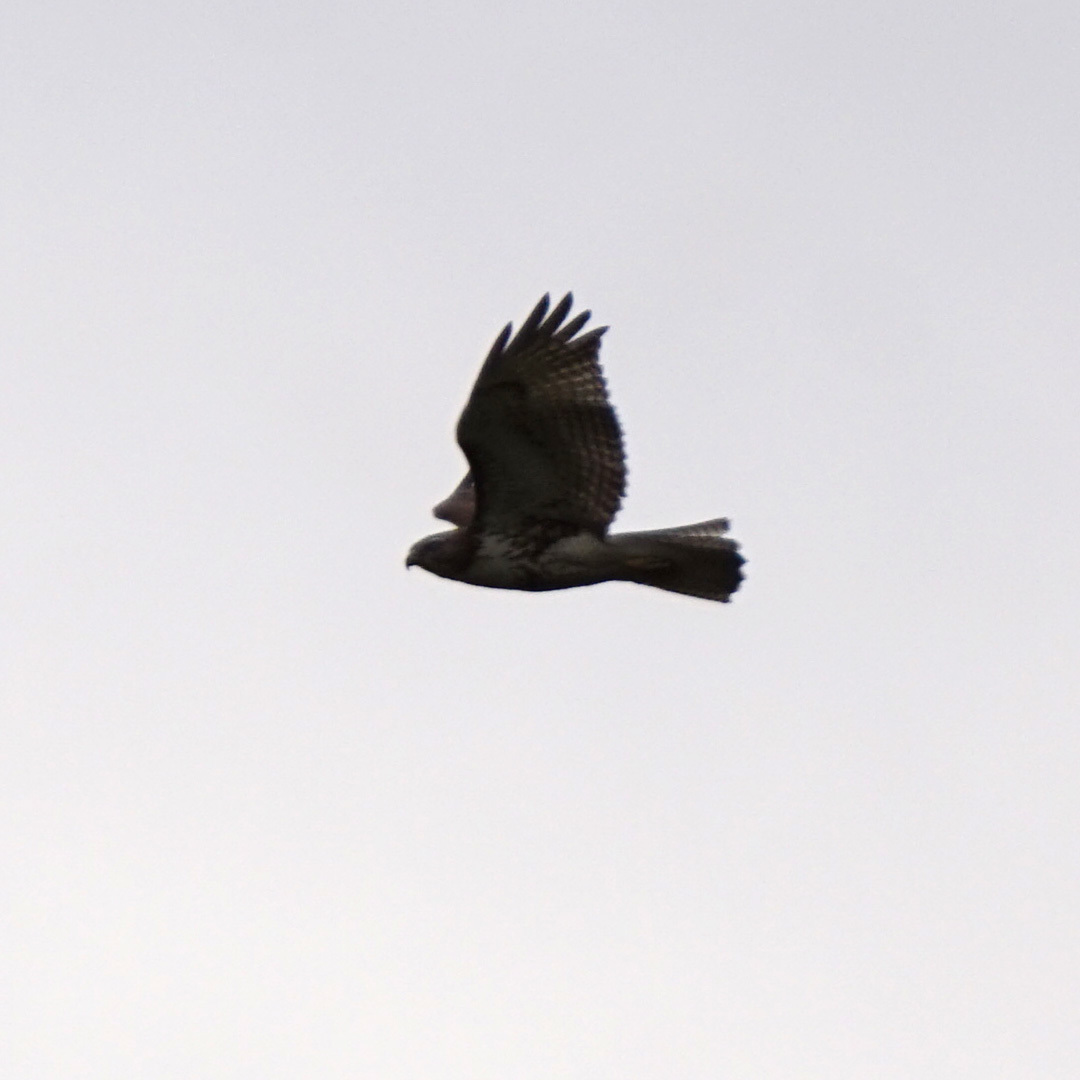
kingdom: Animalia
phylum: Chordata
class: Aves
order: Accipitriformes
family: Accipitridae
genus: Buteo
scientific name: Buteo jamaicensis
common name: Red-tailed hawk
